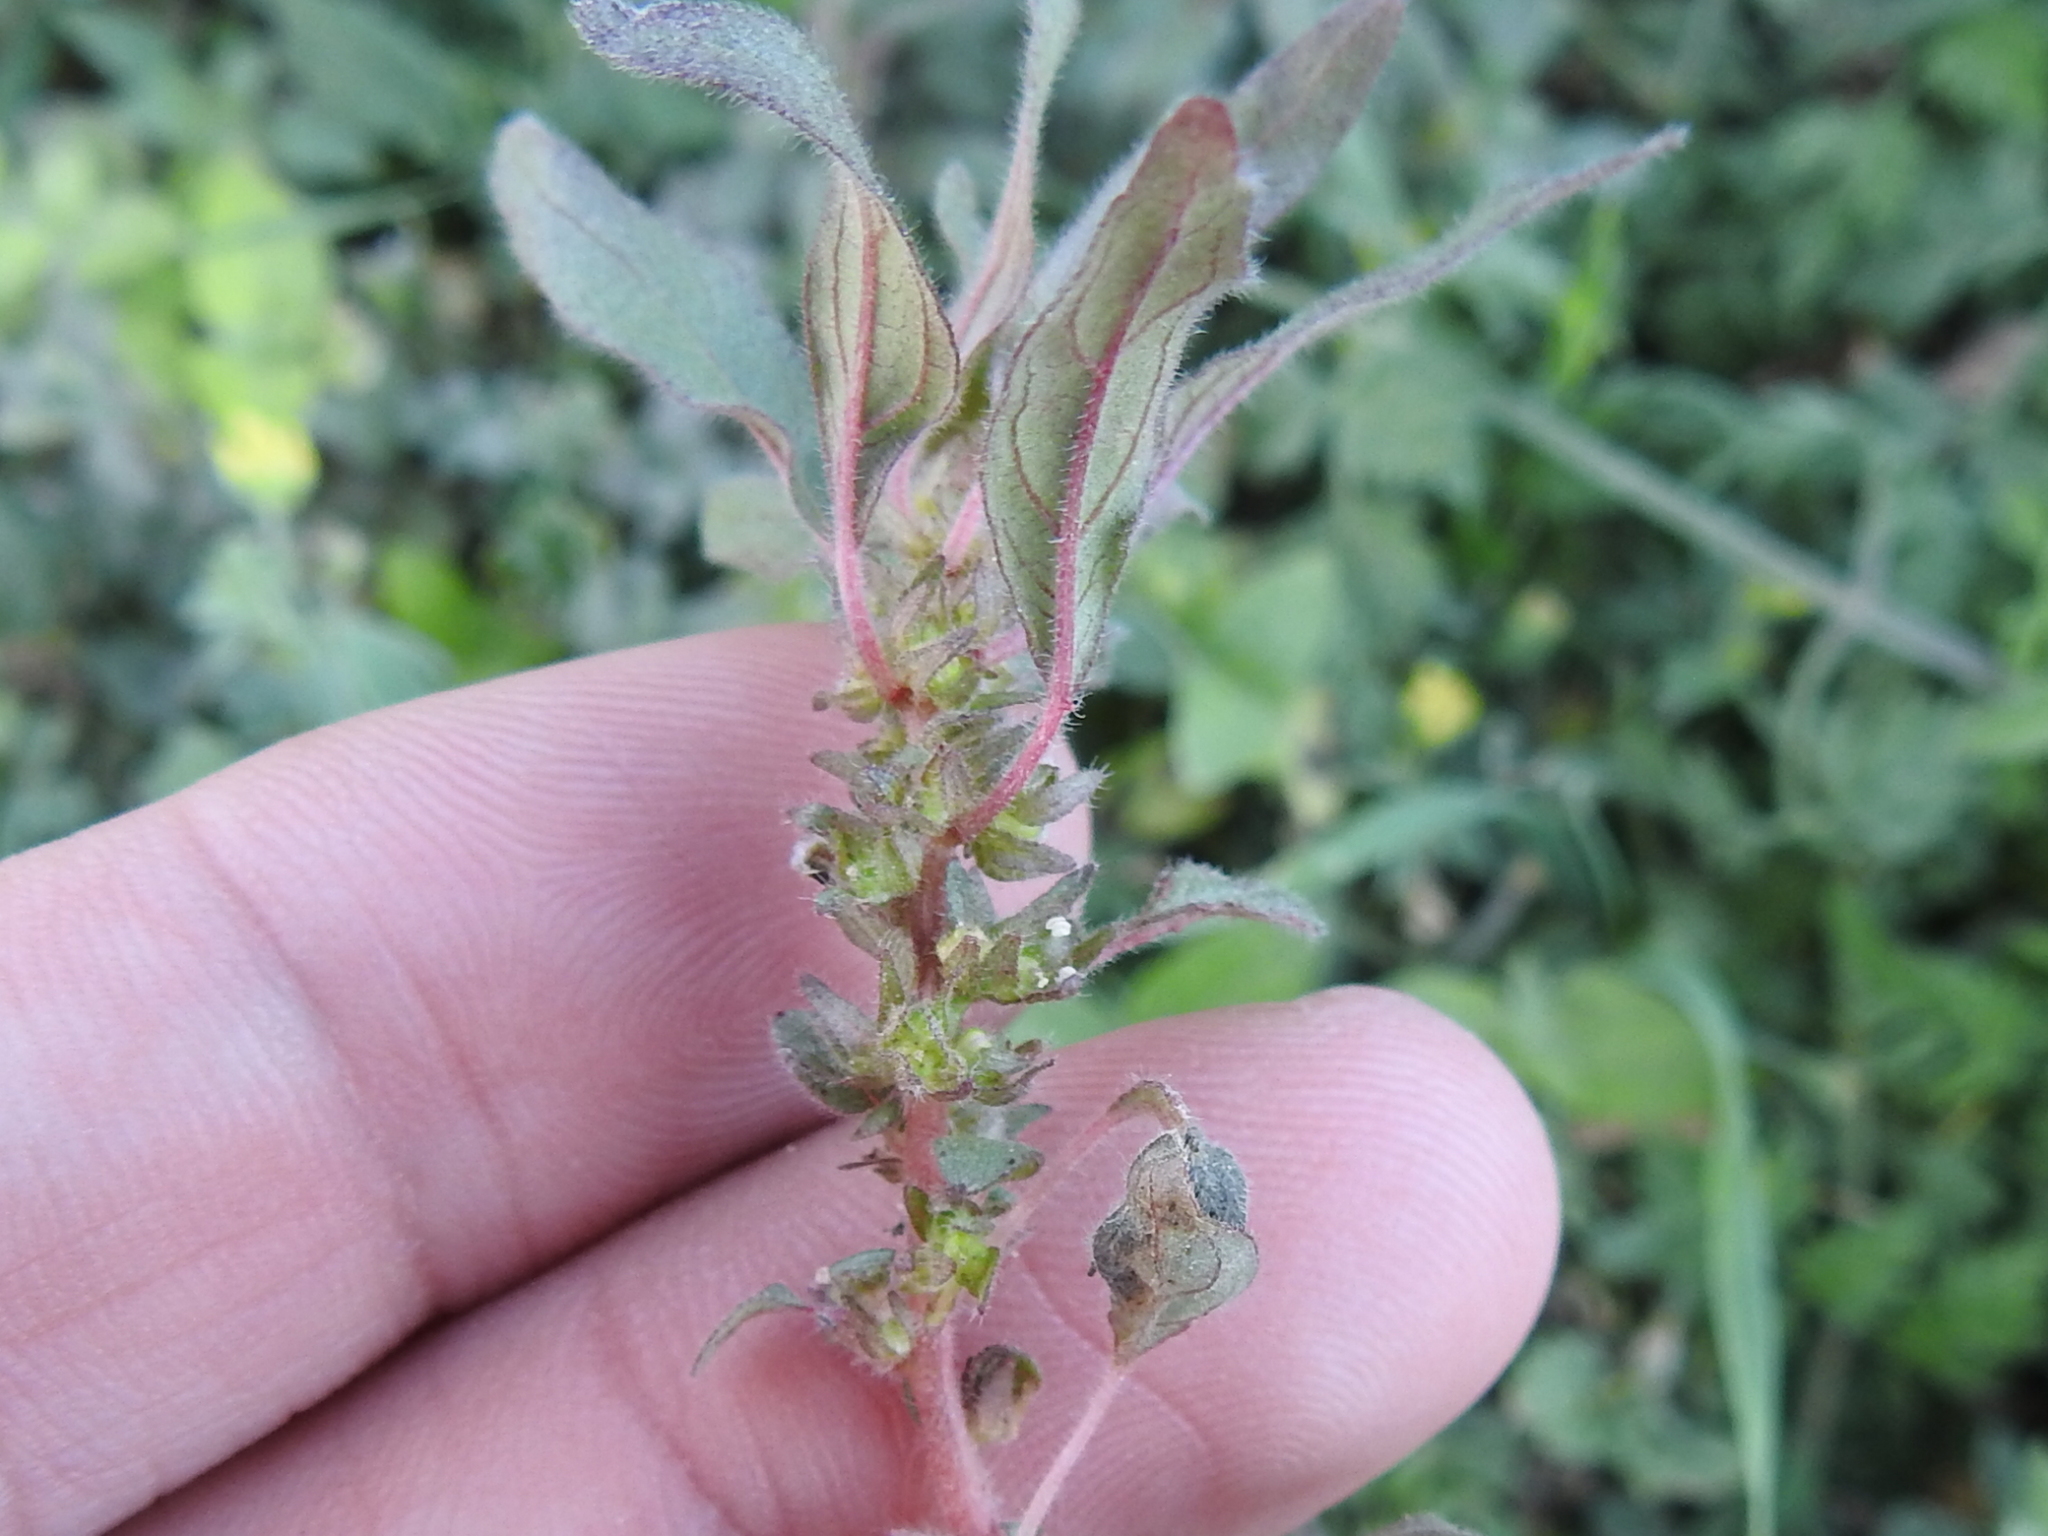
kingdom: Plantae
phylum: Tracheophyta
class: Magnoliopsida
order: Rosales
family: Urticaceae
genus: Parietaria
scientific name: Parietaria pensylvanica
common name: Pennsylvania pellitory
